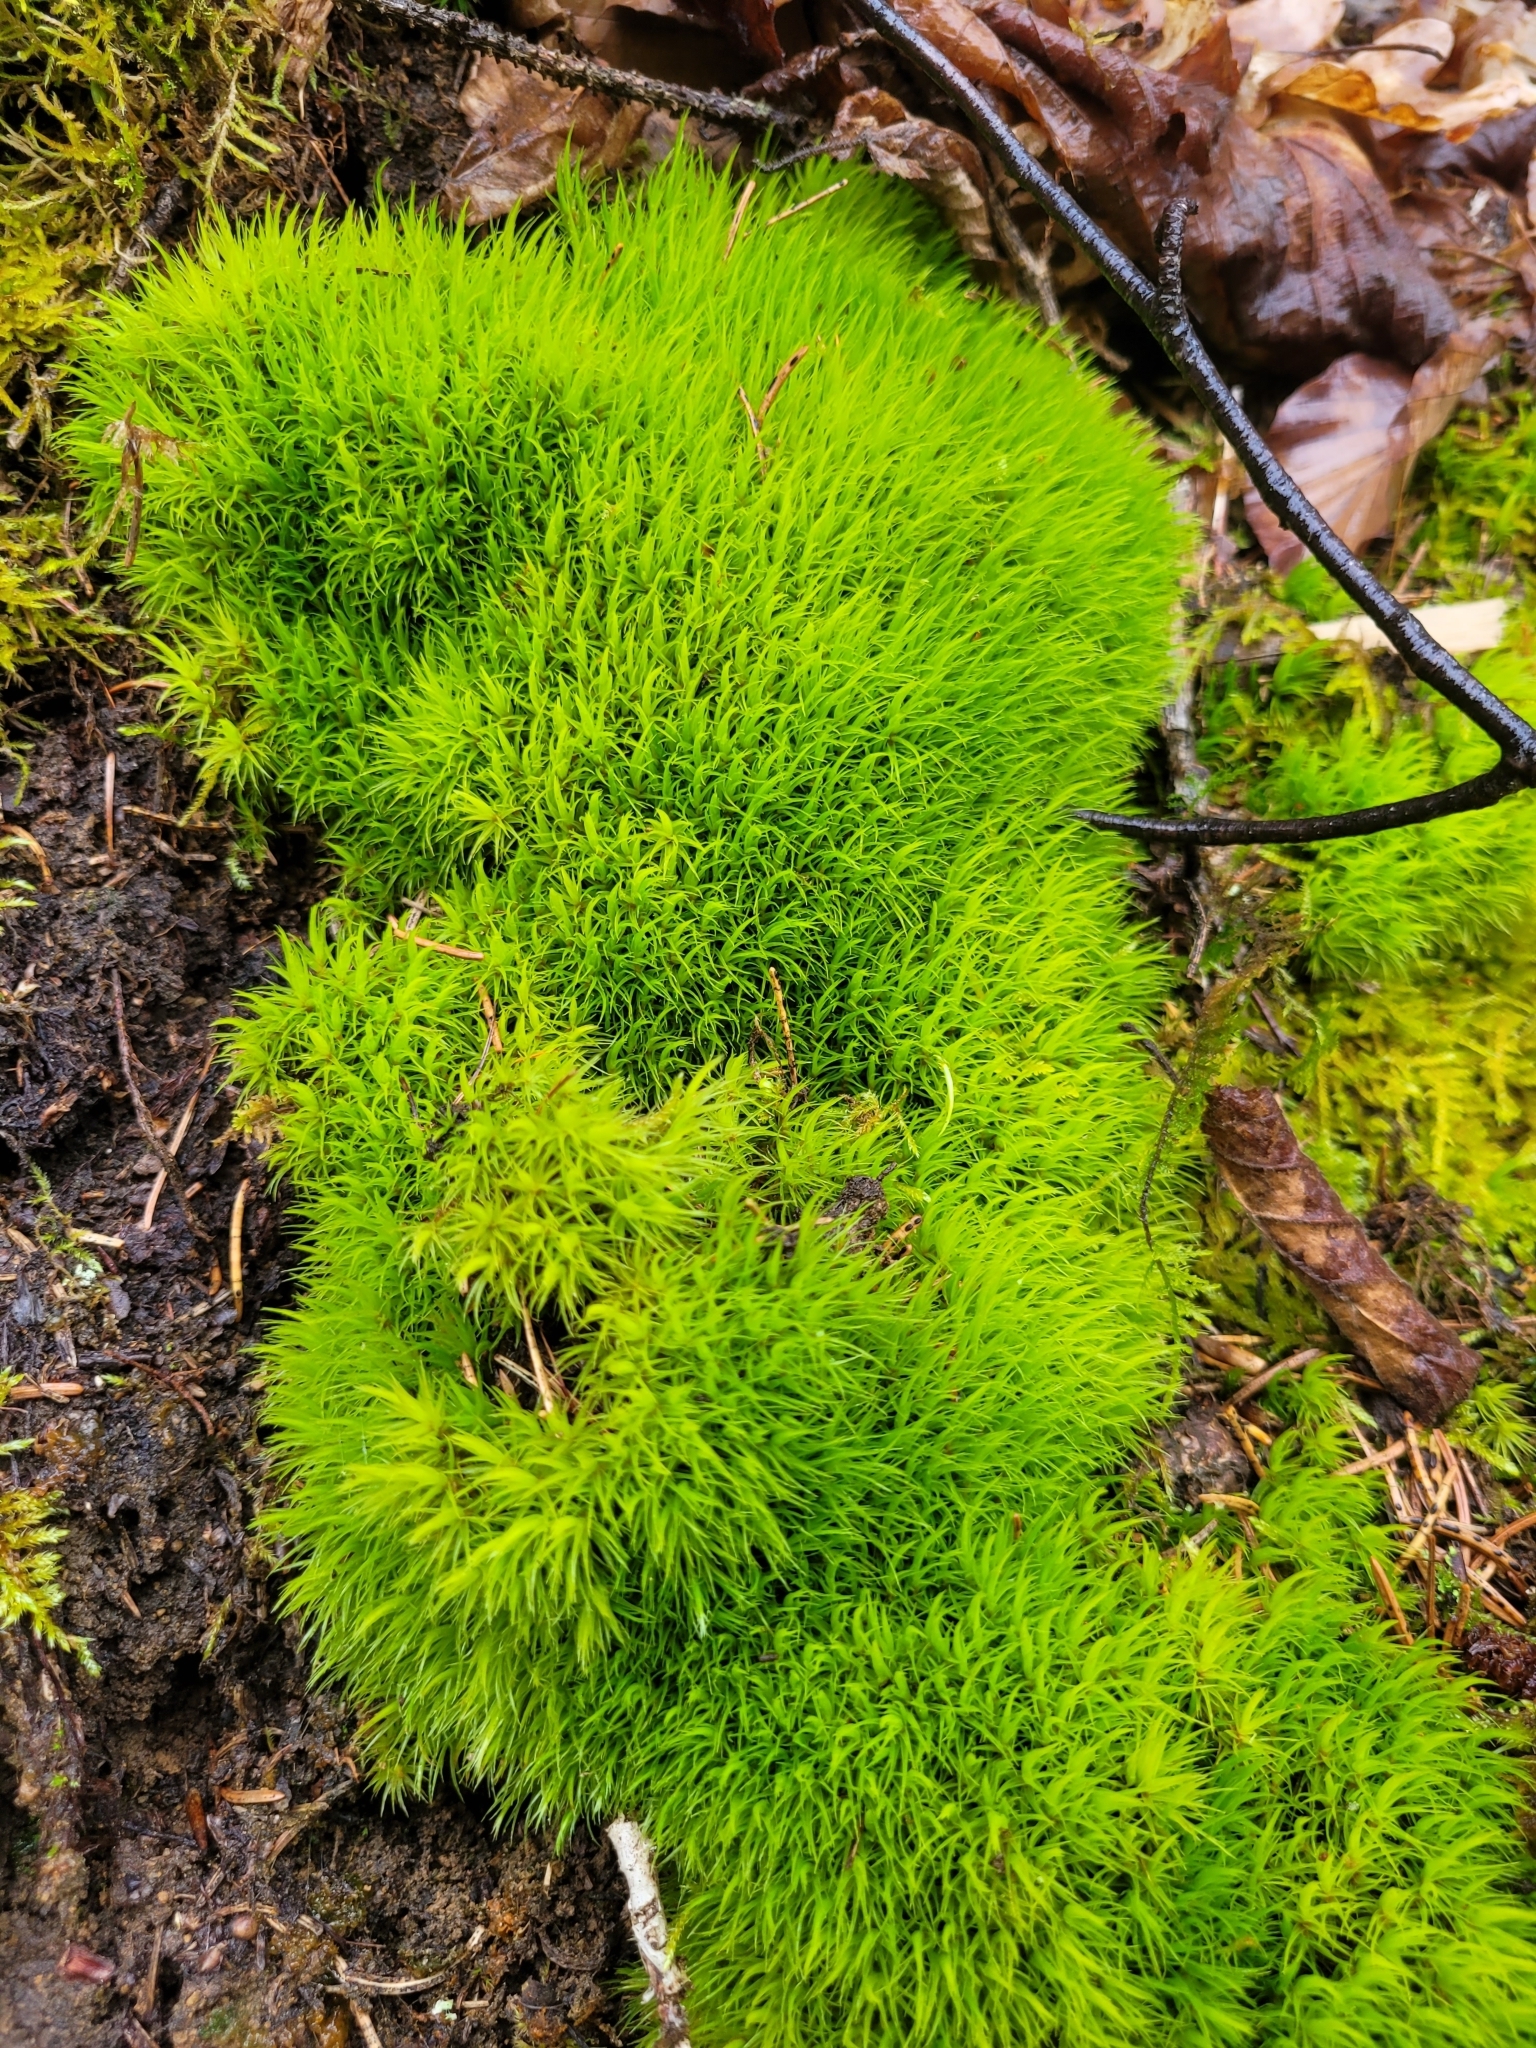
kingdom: Plantae
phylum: Bryophyta
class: Bryopsida
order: Dicranales
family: Dicranaceae
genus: Dicranum
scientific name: Dicranum scoparium
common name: Broom fork-moss
